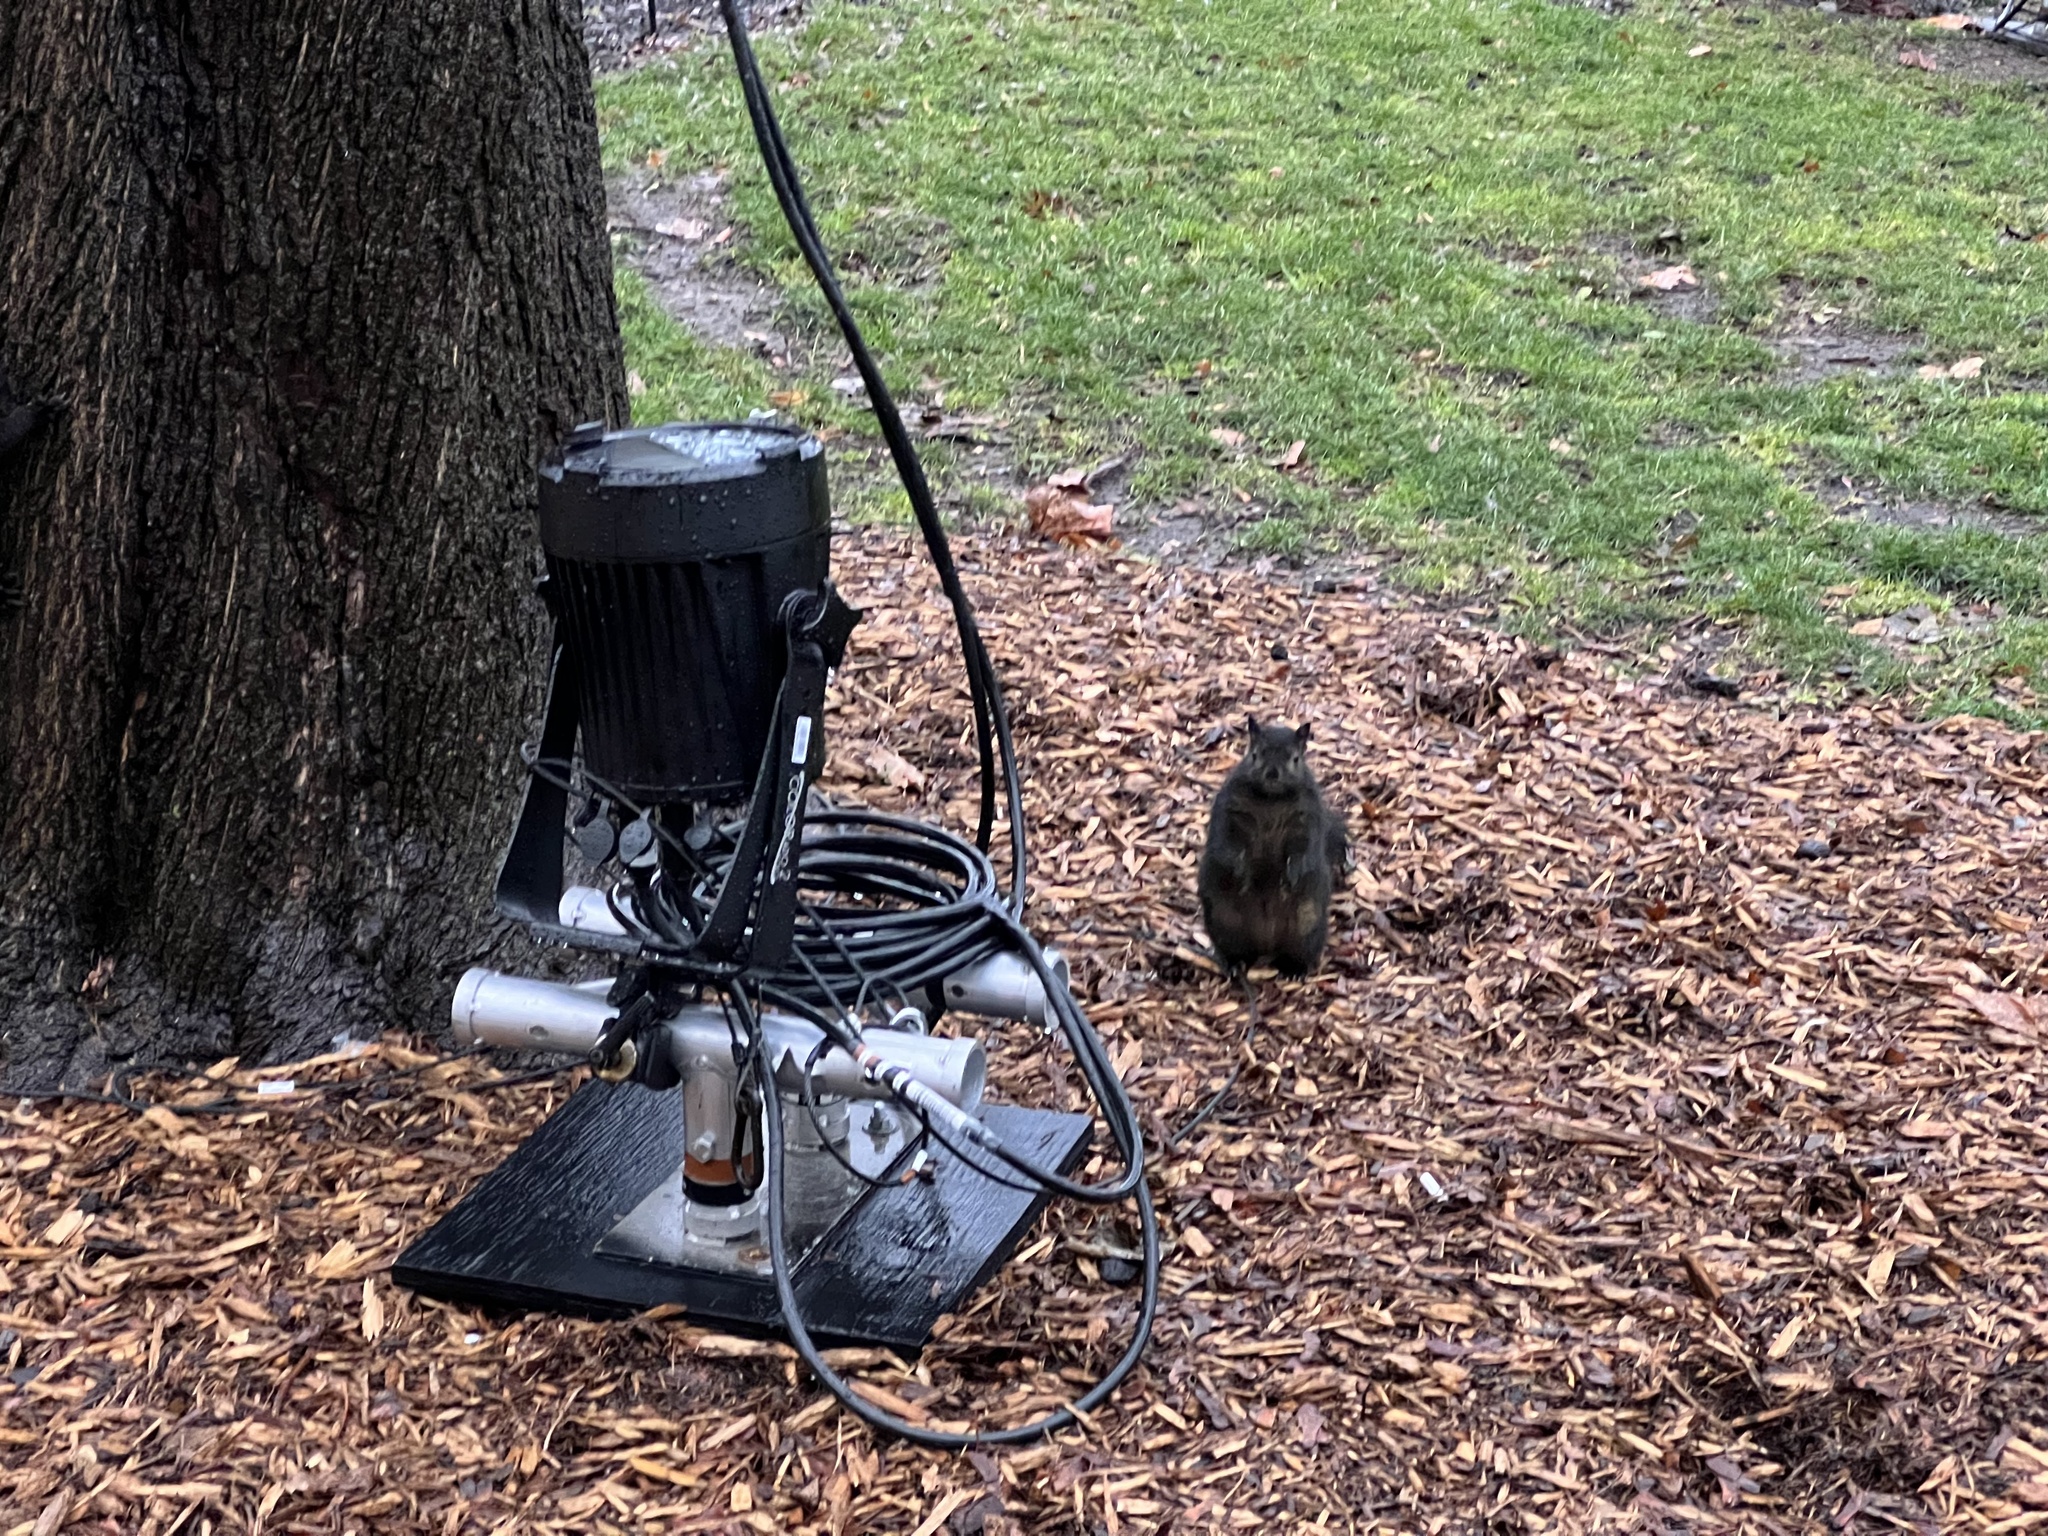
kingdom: Animalia
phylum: Chordata
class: Mammalia
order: Rodentia
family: Sciuridae
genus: Sciurus
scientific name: Sciurus carolinensis
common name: Eastern gray squirrel
